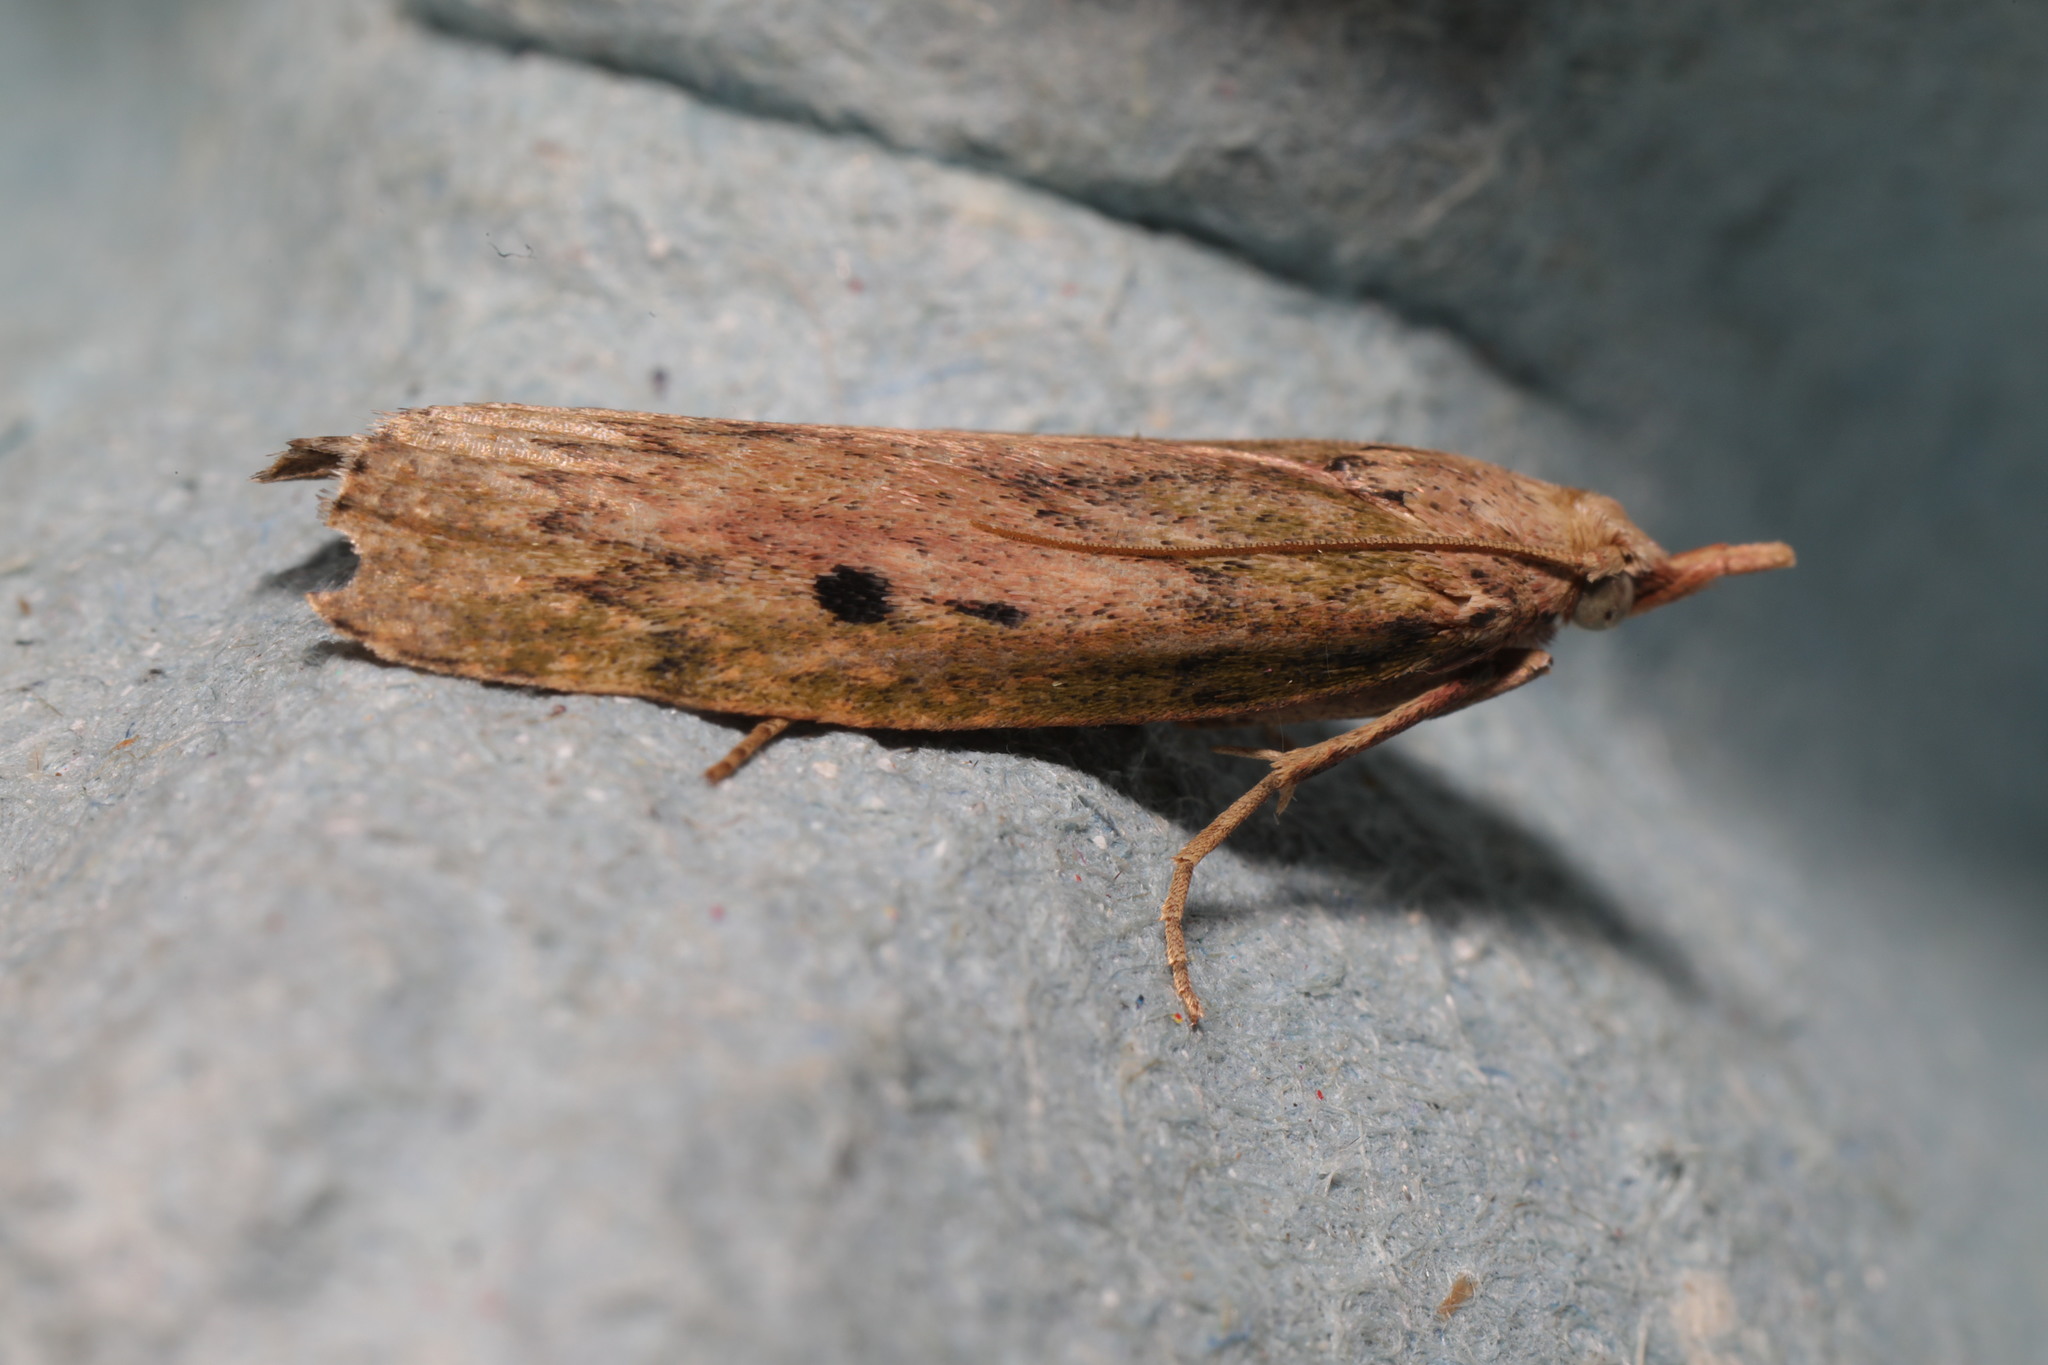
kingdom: Animalia
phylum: Arthropoda
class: Insecta
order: Lepidoptera
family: Pyralidae
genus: Aphomia
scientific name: Aphomia sociella
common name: Bee moth
